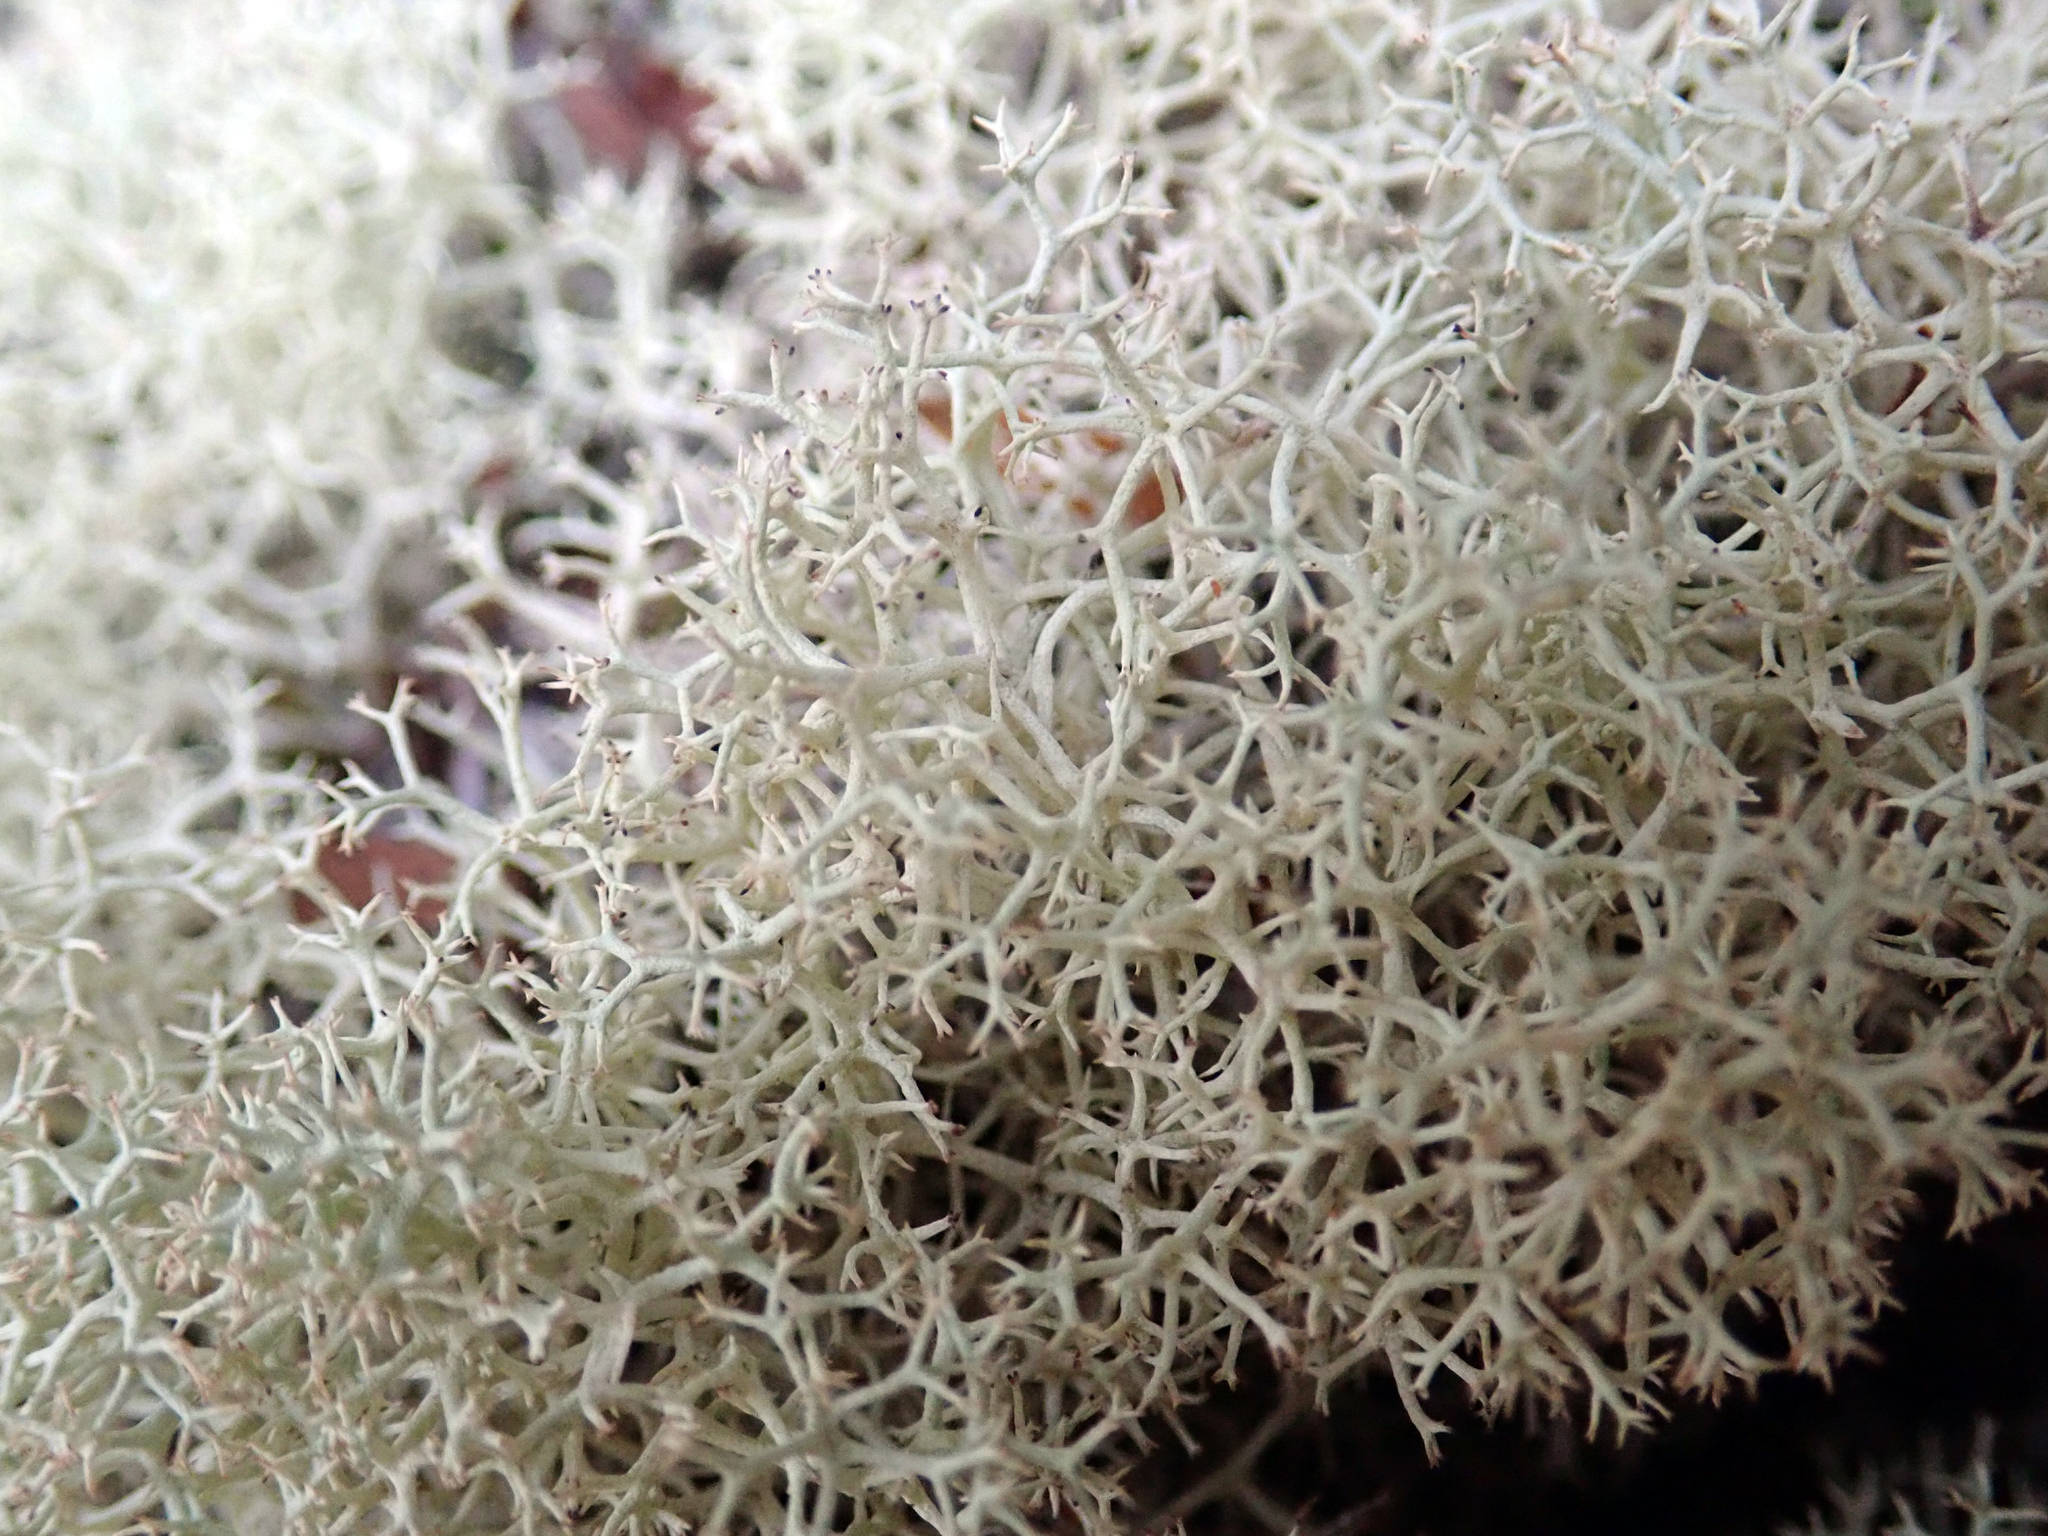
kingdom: Fungi
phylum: Ascomycota
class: Lecanoromycetes
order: Lecanorales
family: Cladoniaceae
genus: Cladonia
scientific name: Cladonia confusa
